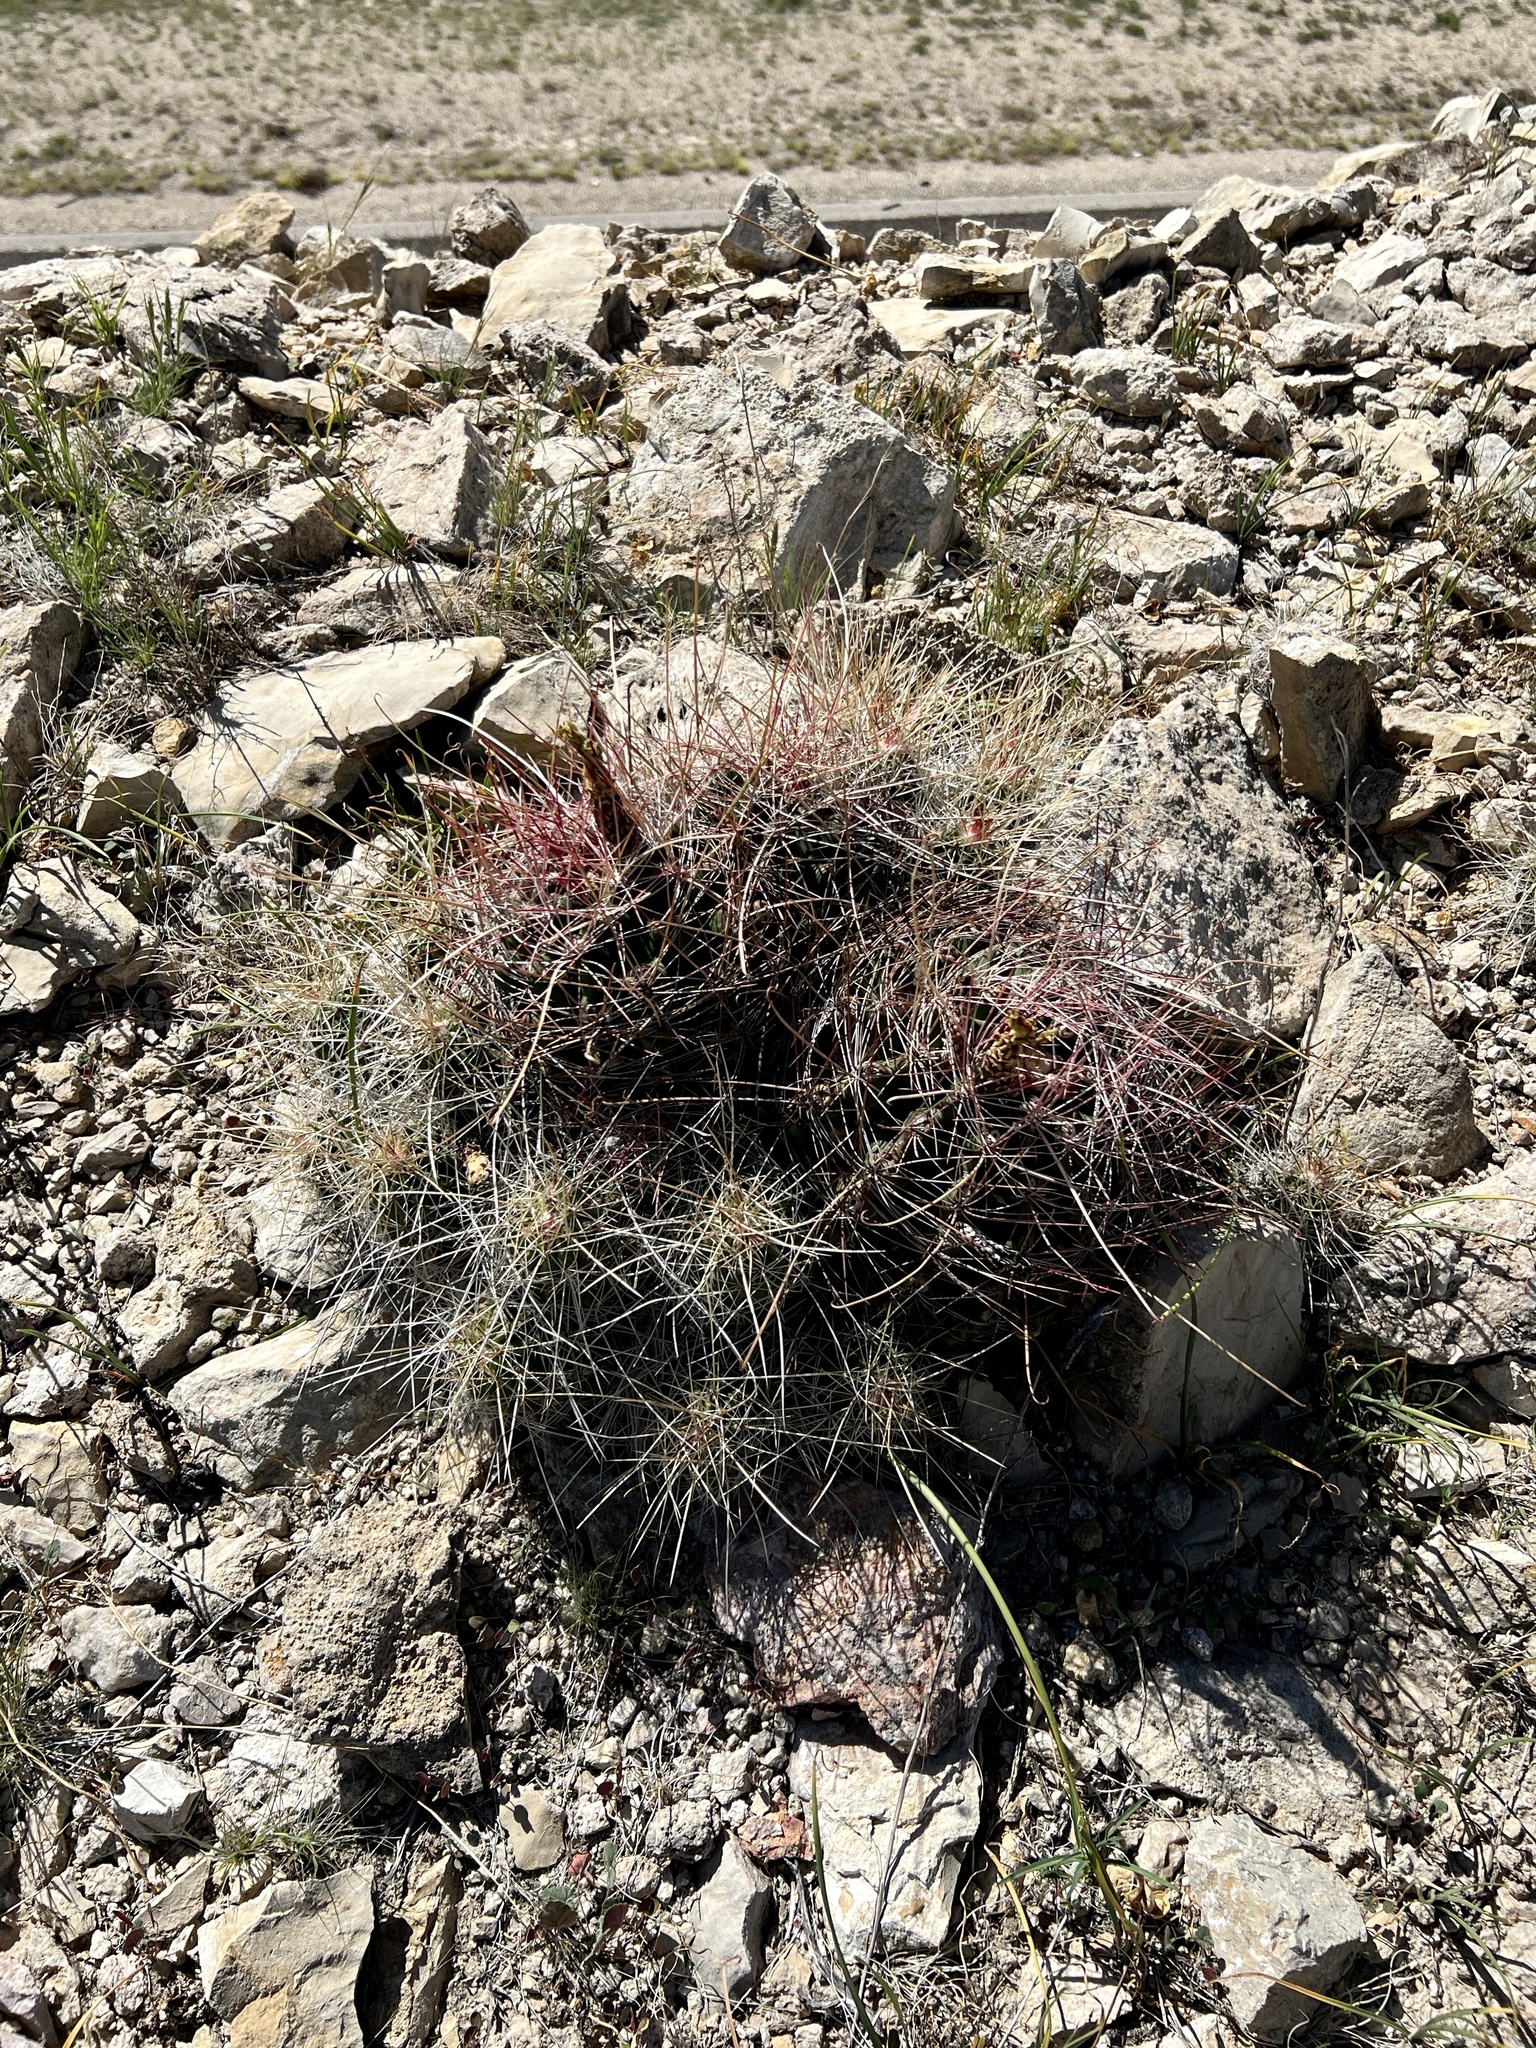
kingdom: Plantae
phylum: Tracheophyta
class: Magnoliopsida
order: Caryophyllales
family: Cactaceae
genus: Bisnaga
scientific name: Bisnaga hamatacantha
